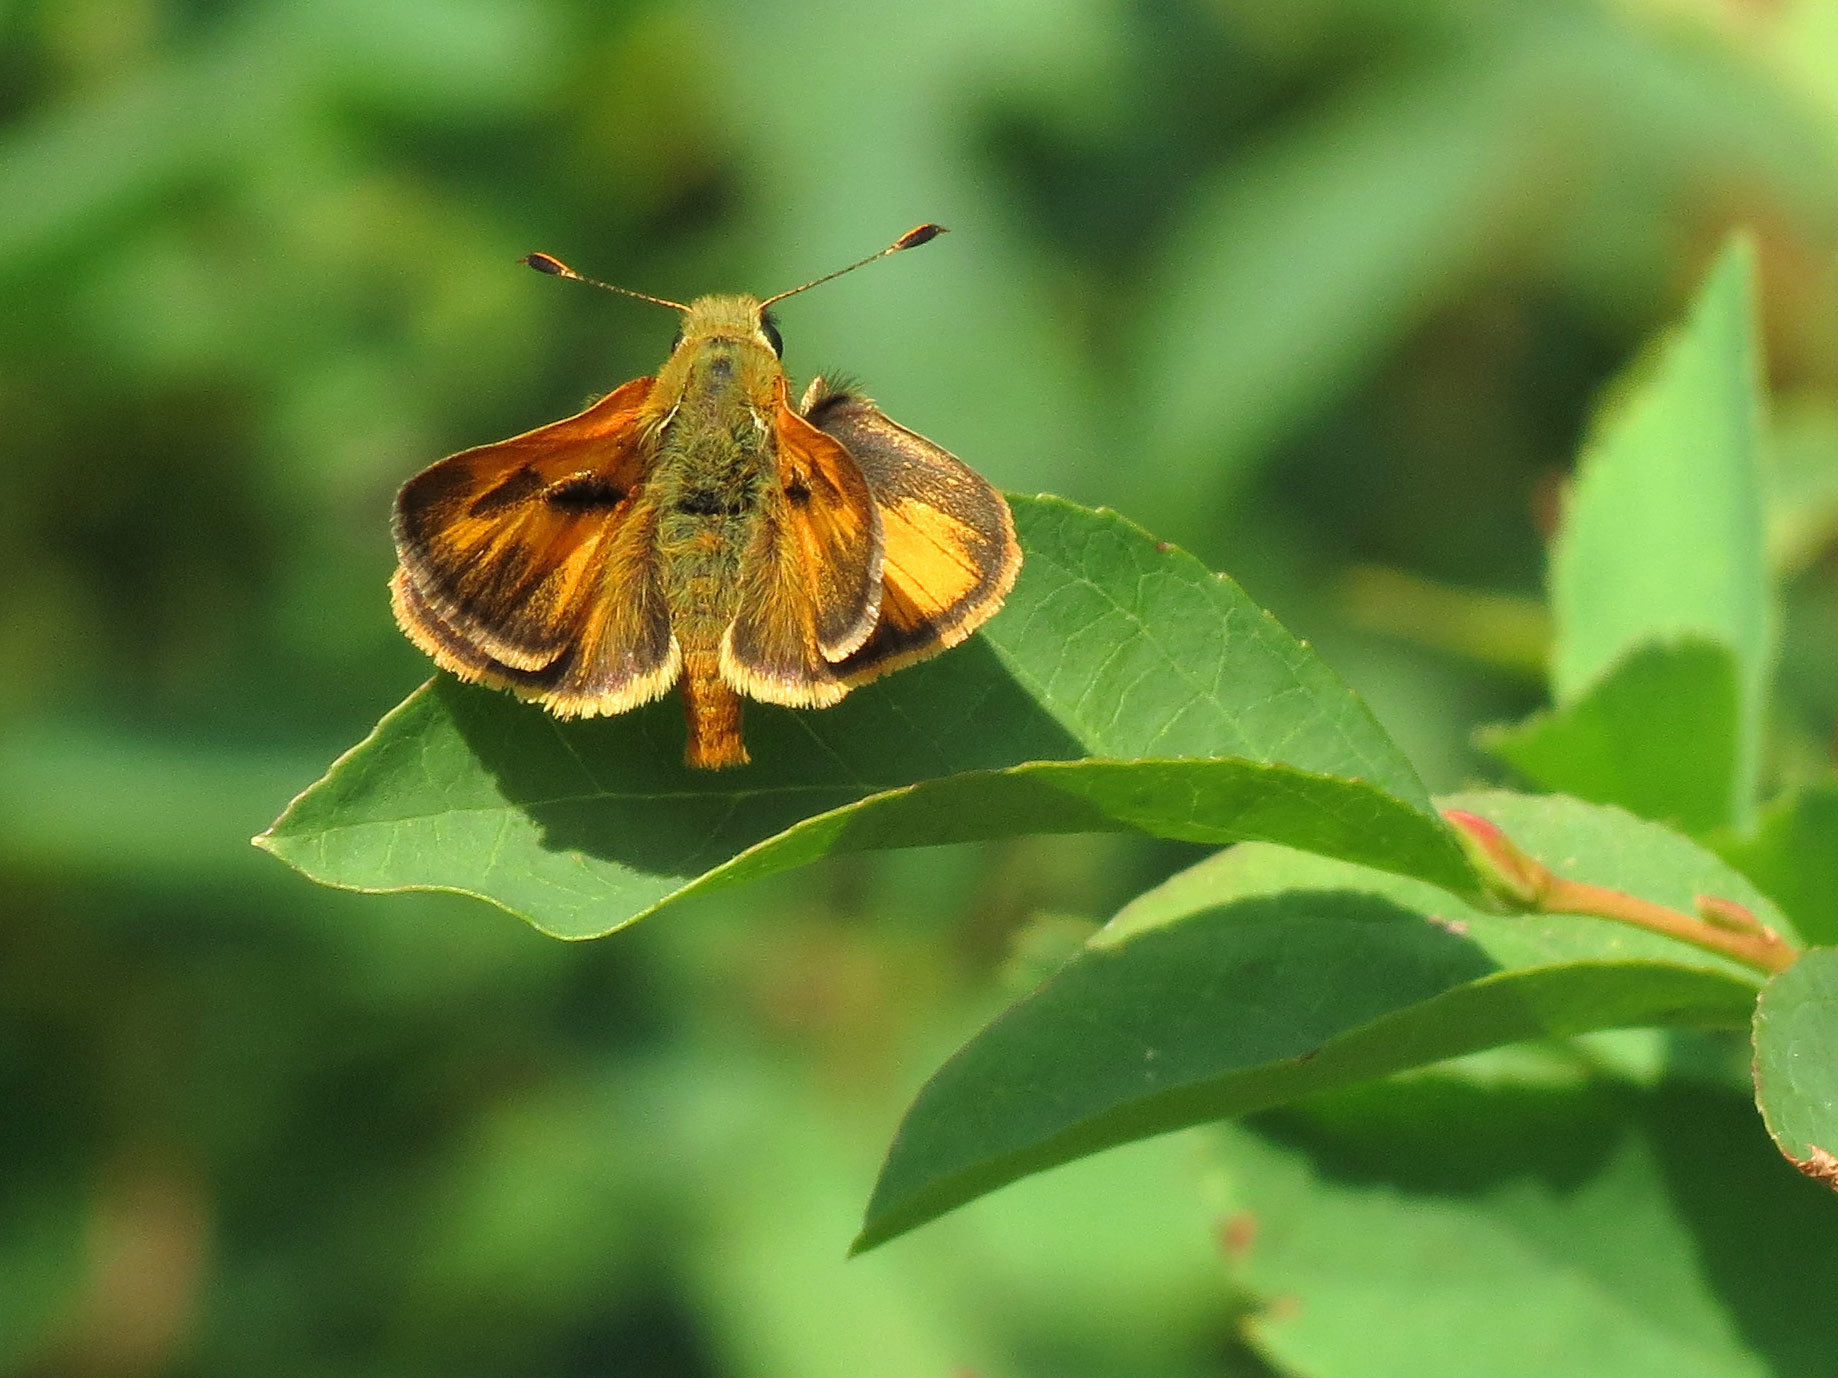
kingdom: Animalia
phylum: Arthropoda
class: Insecta
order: Lepidoptera
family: Hesperiidae
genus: Polites
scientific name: Polites sabuleti
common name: Sandhill skipper
